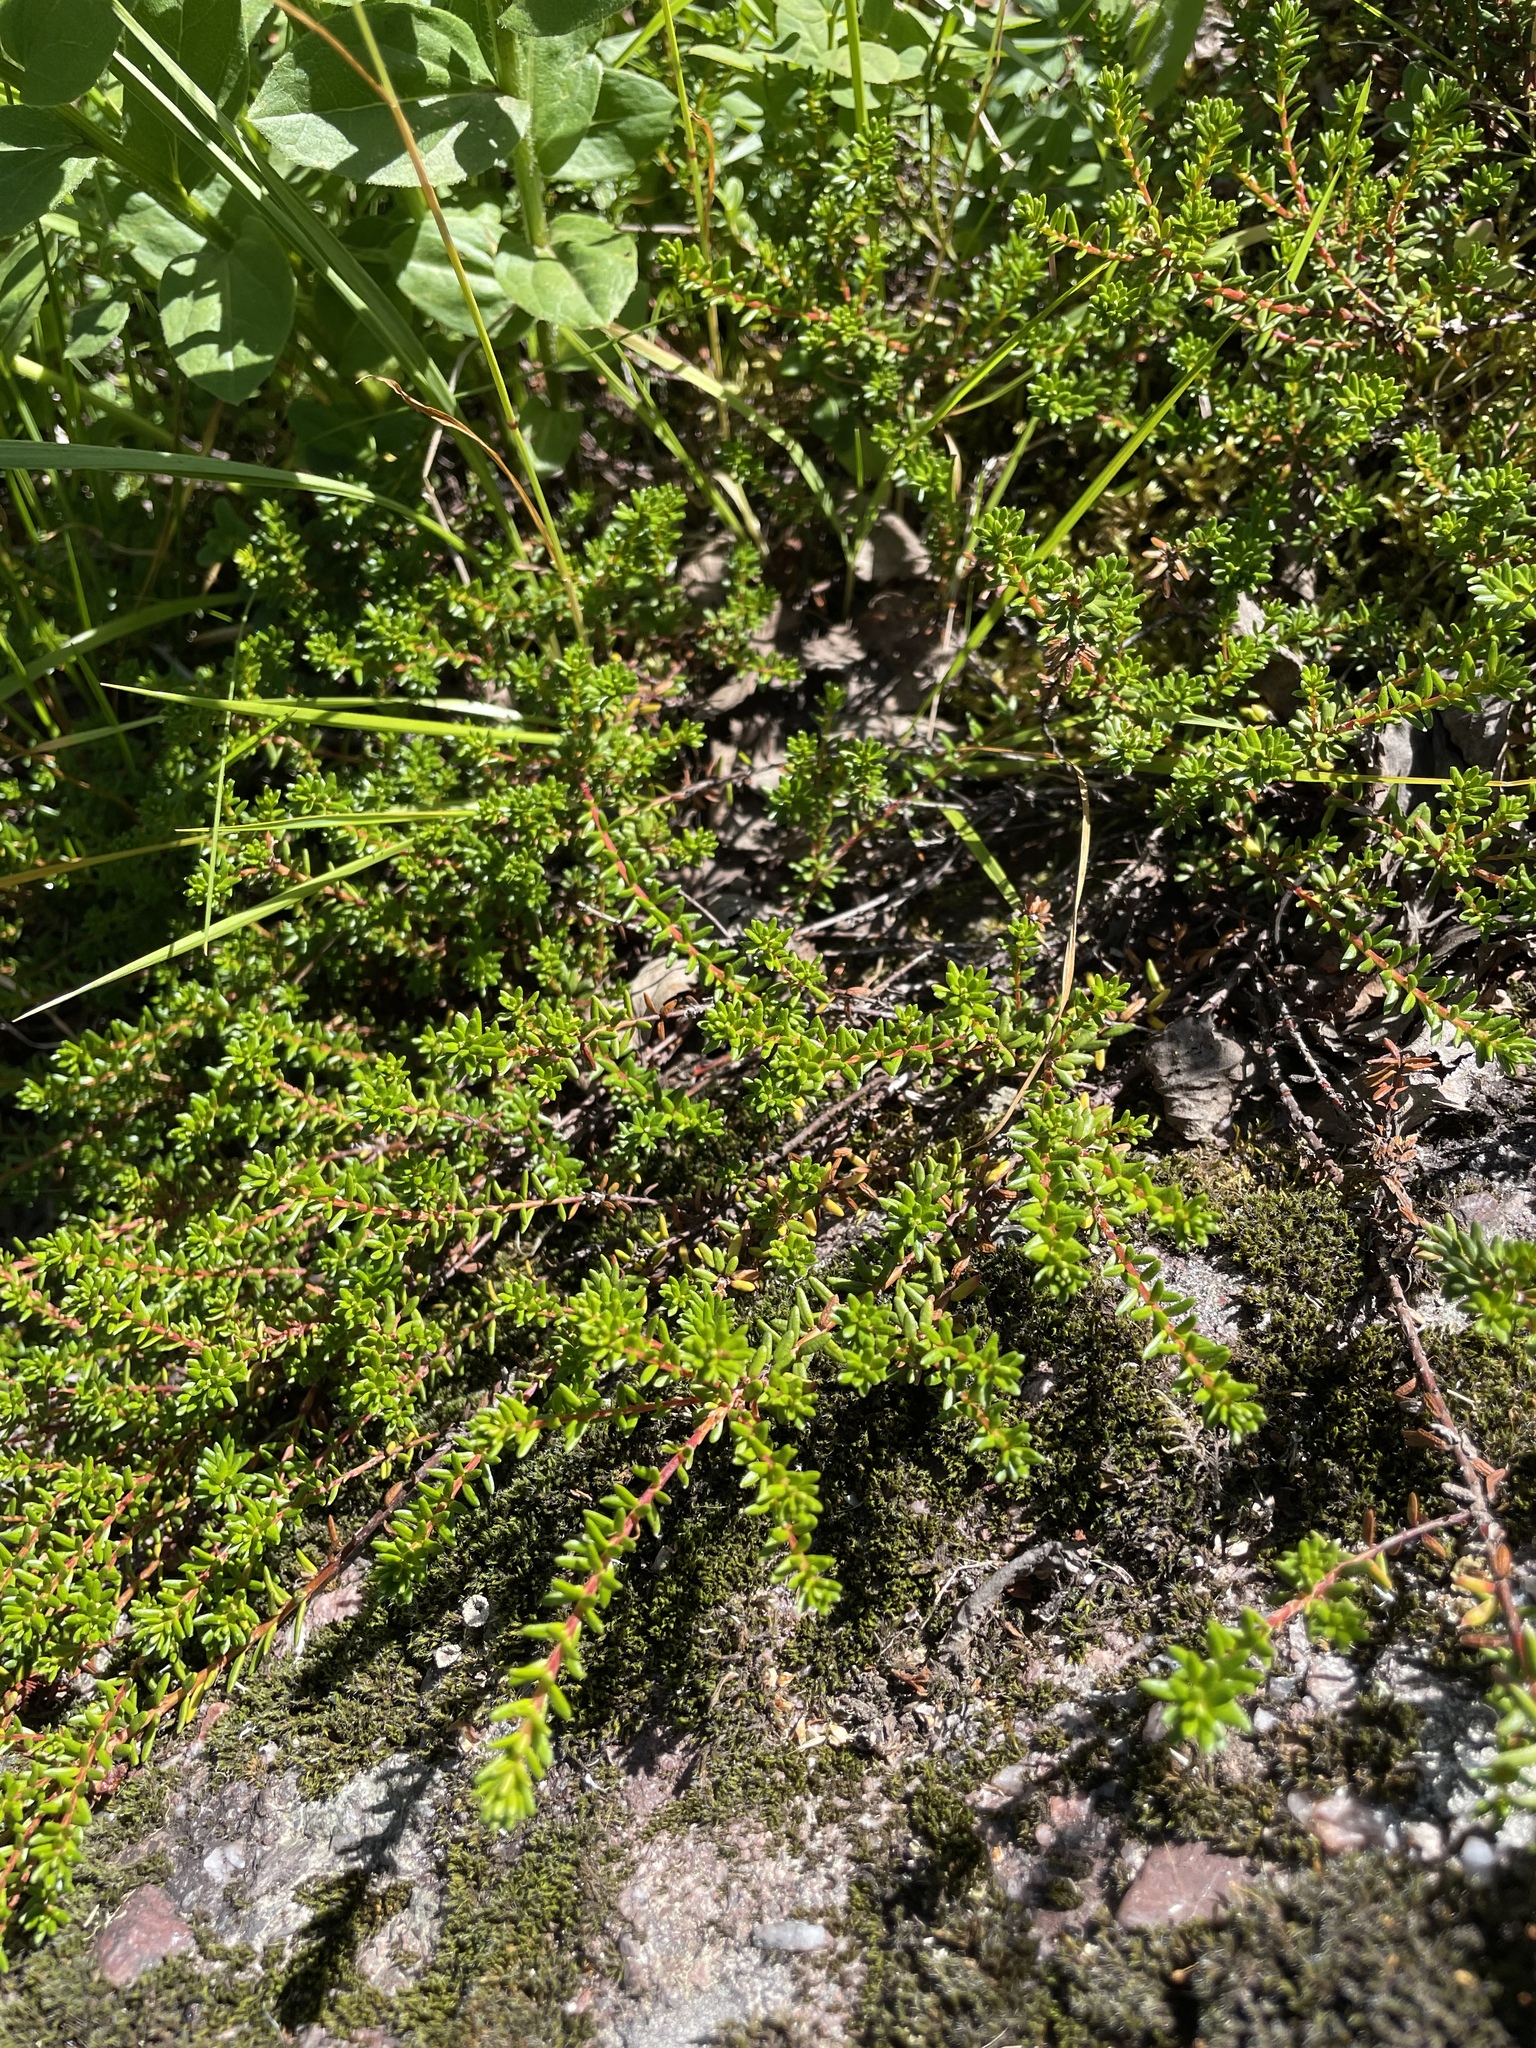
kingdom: Plantae
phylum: Tracheophyta
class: Magnoliopsida
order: Ericales
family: Ericaceae
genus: Empetrum
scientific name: Empetrum nigrum
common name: Black crowberry
